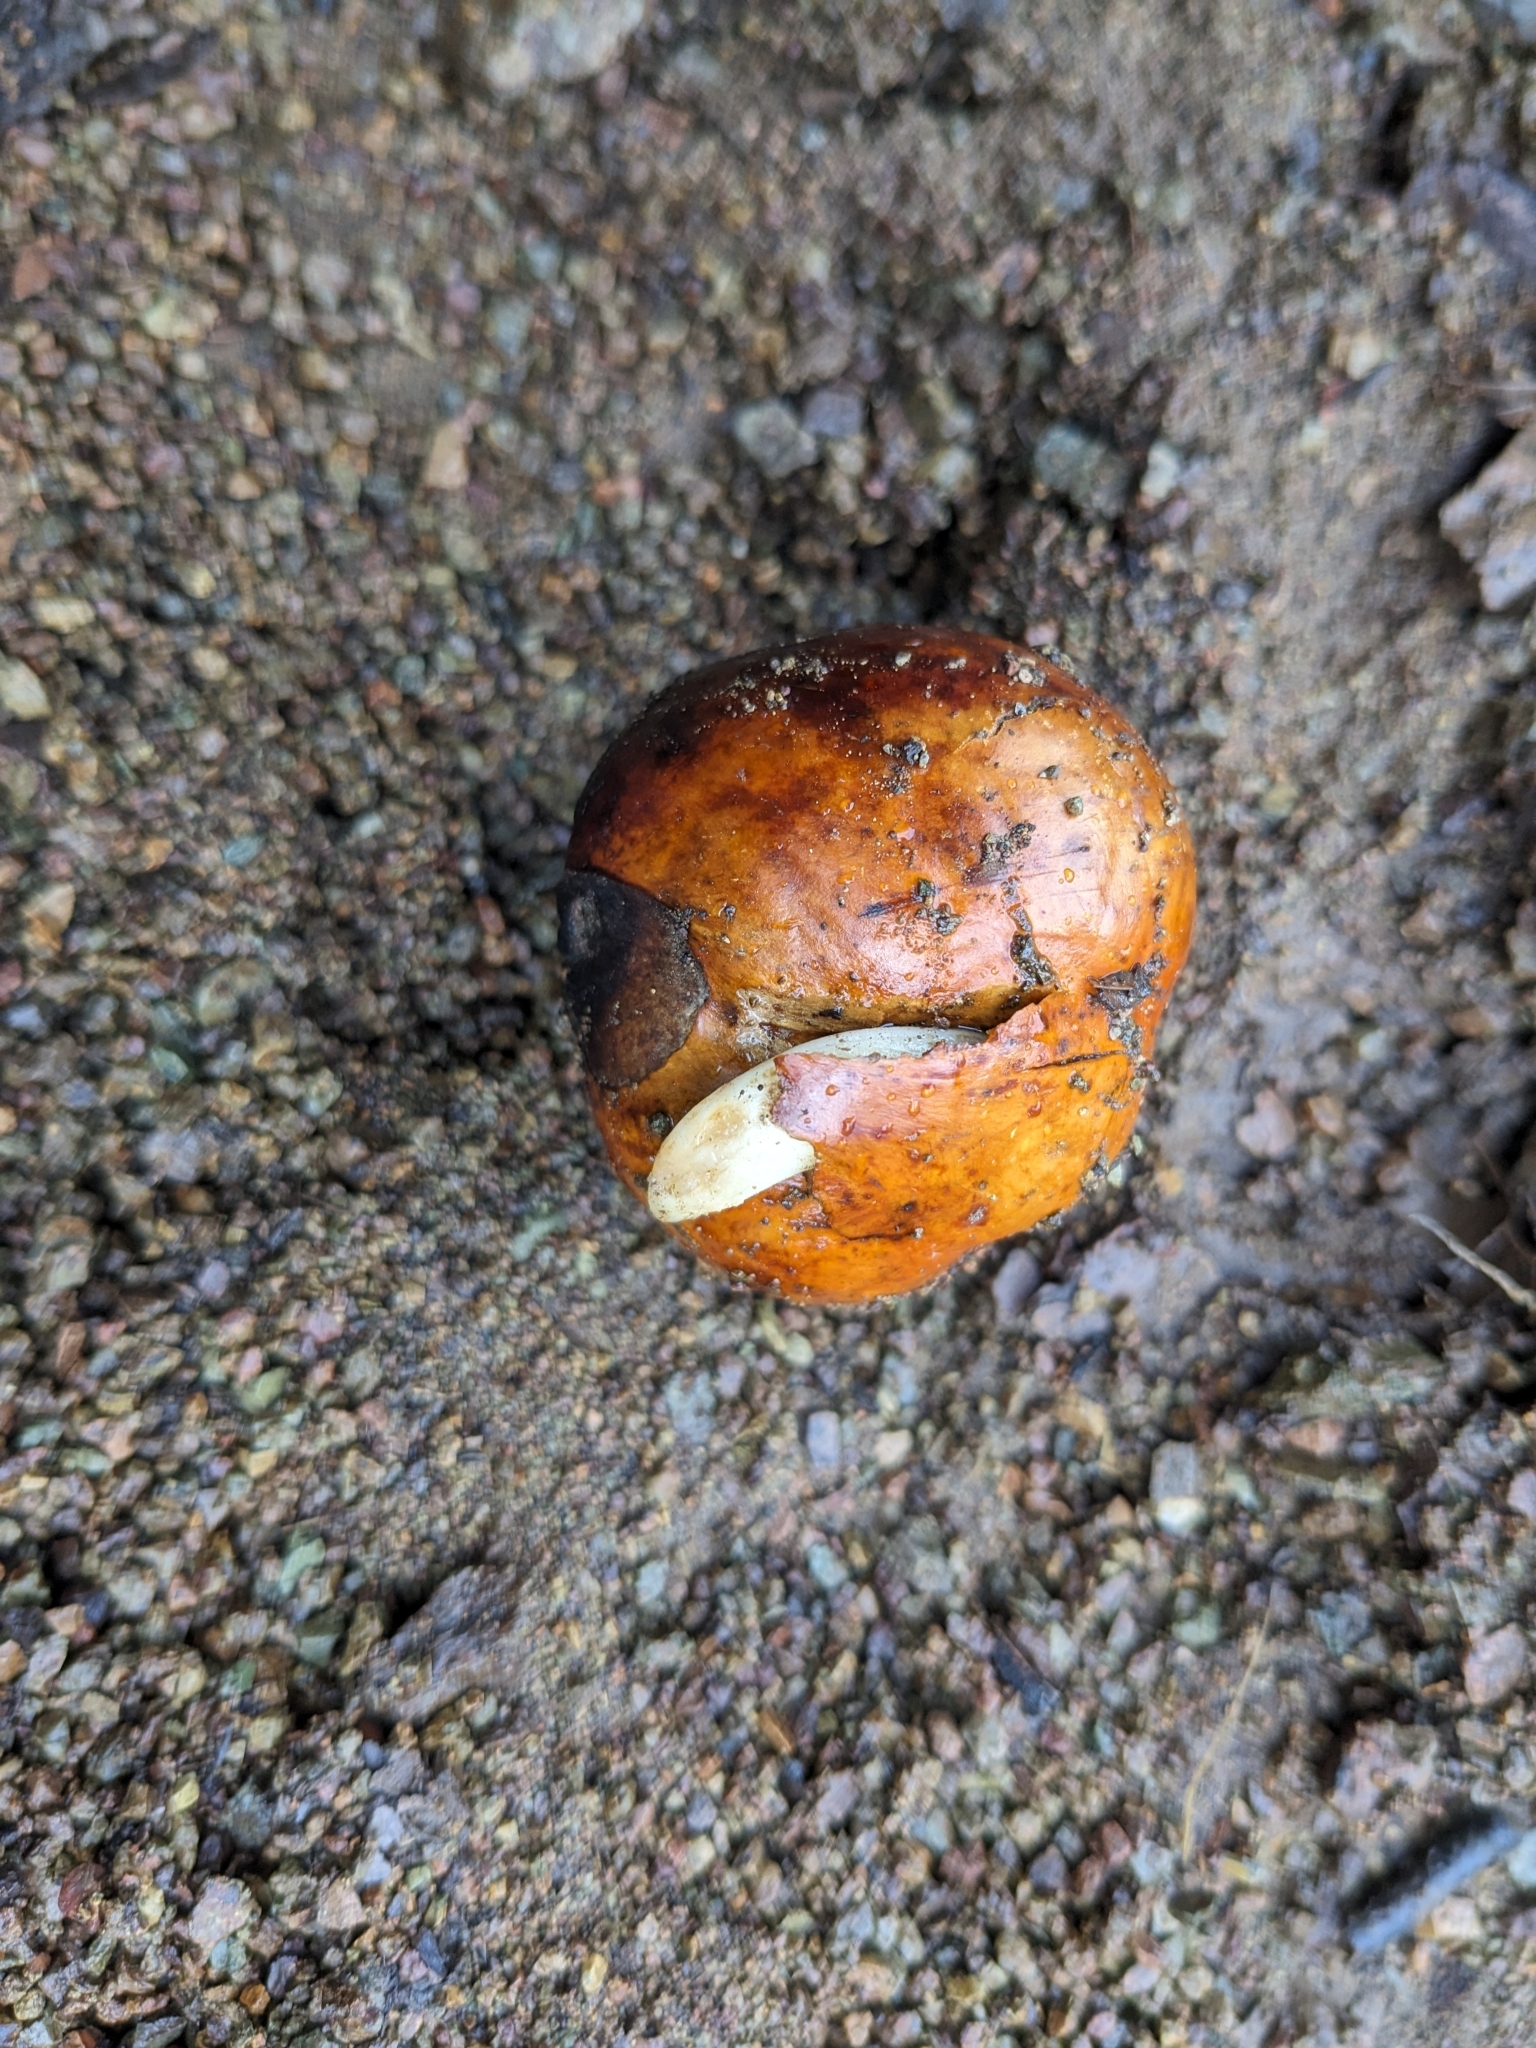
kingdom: Plantae
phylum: Tracheophyta
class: Magnoliopsida
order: Sapindales
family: Sapindaceae
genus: Aesculus
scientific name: Aesculus californica
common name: California buckeye
